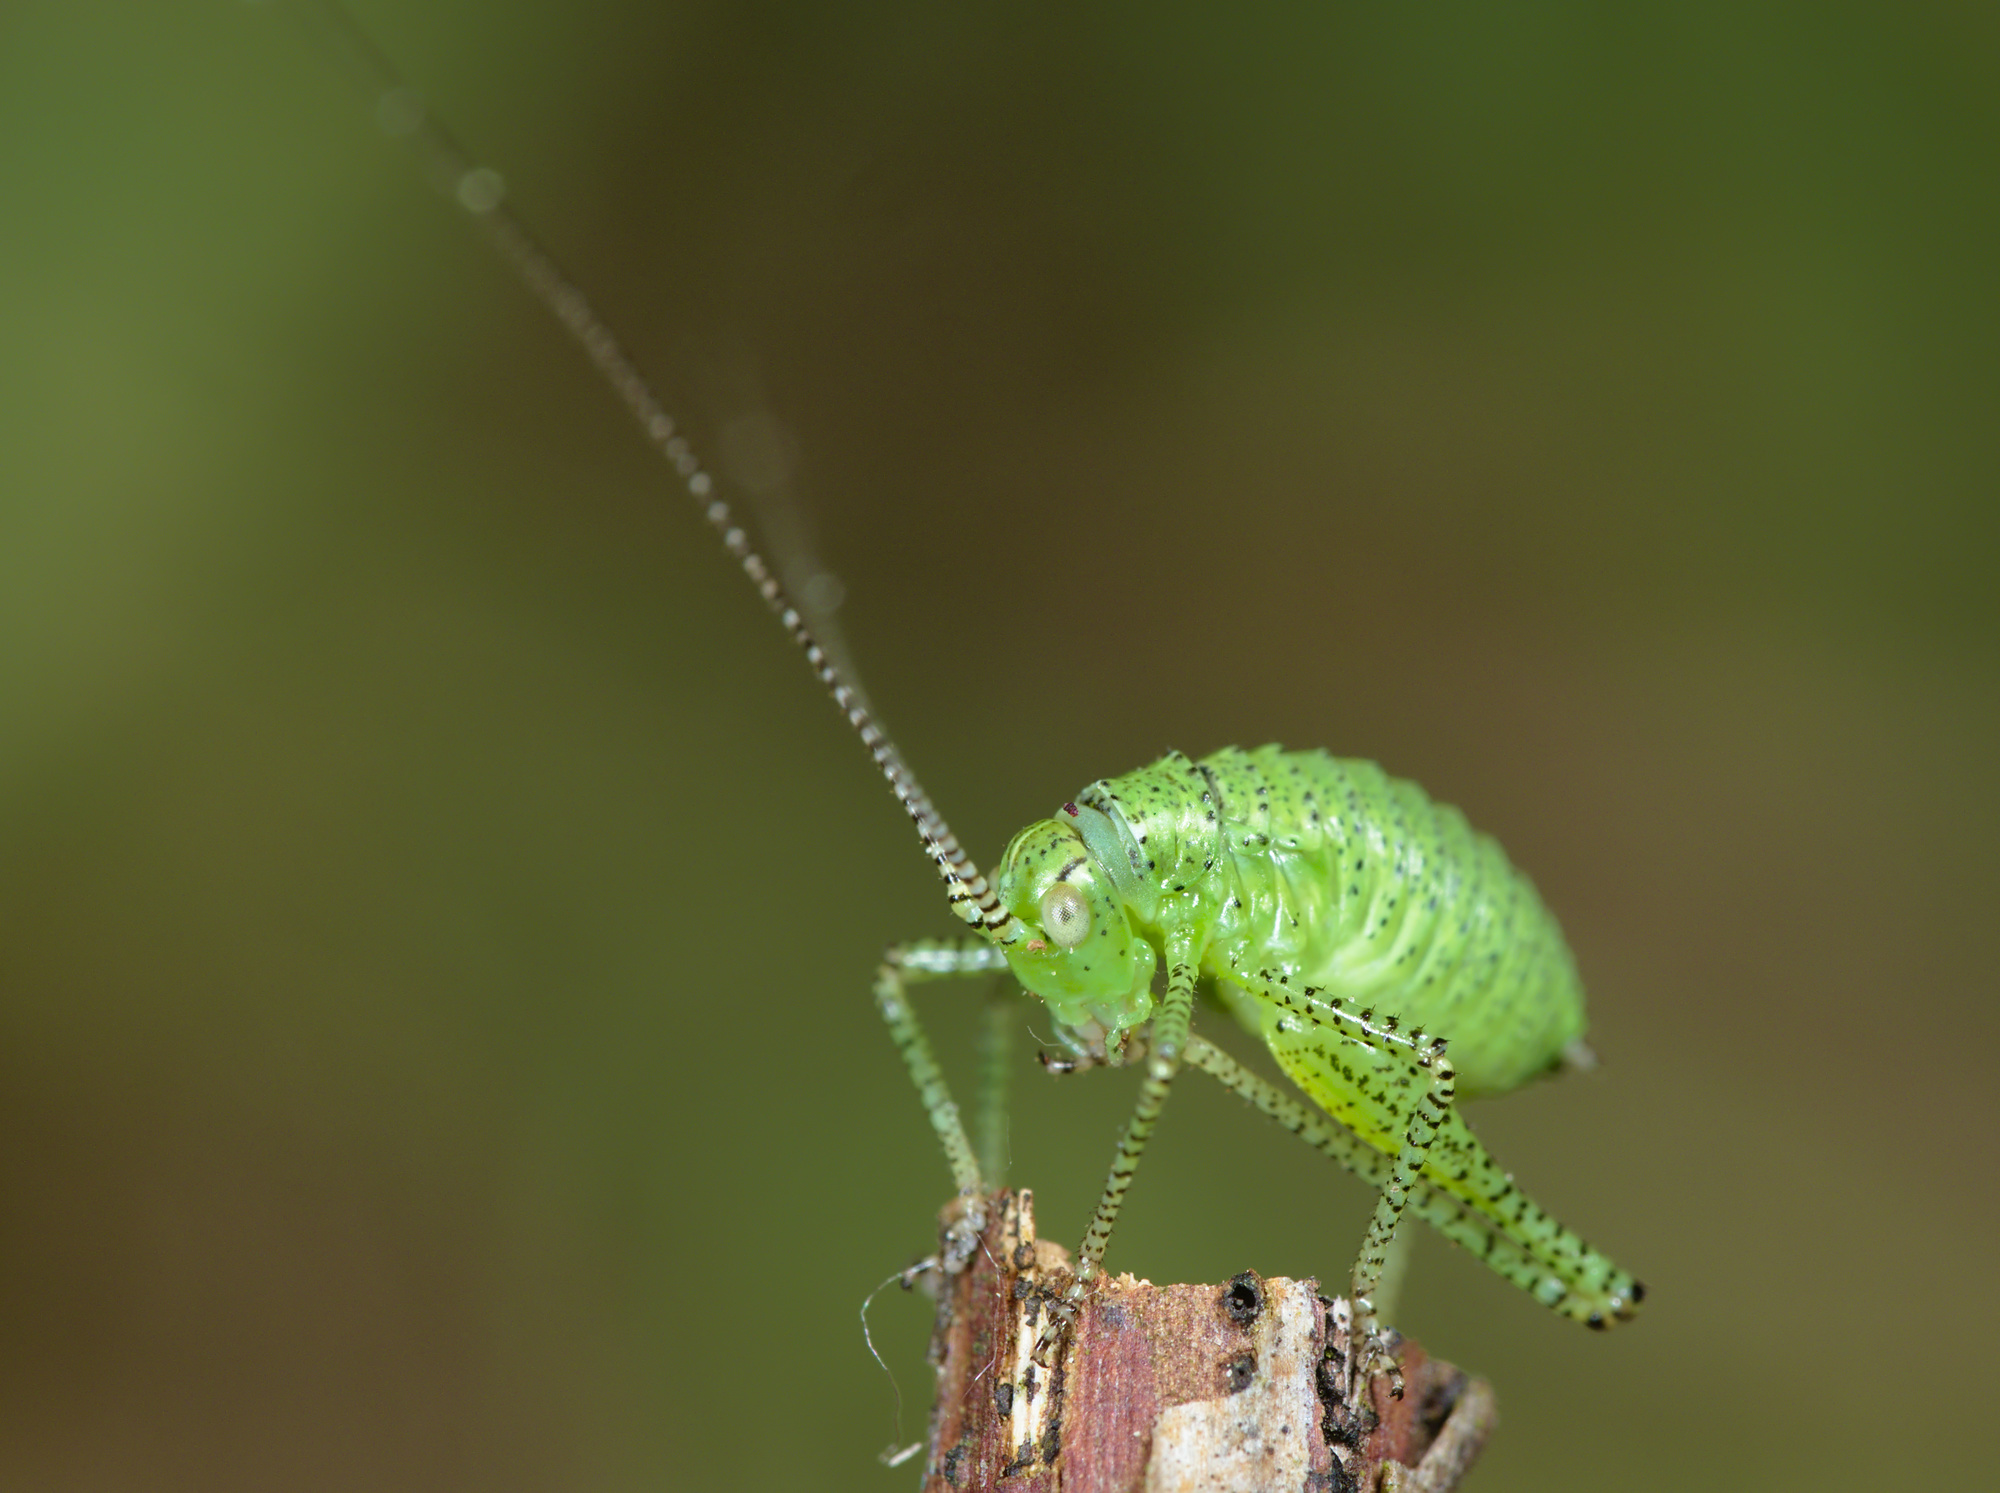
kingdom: Animalia
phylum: Arthropoda
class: Insecta
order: Orthoptera
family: Tettigoniidae
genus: Leptophyes
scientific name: Leptophyes punctatissima
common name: Speckled bush-cricket
